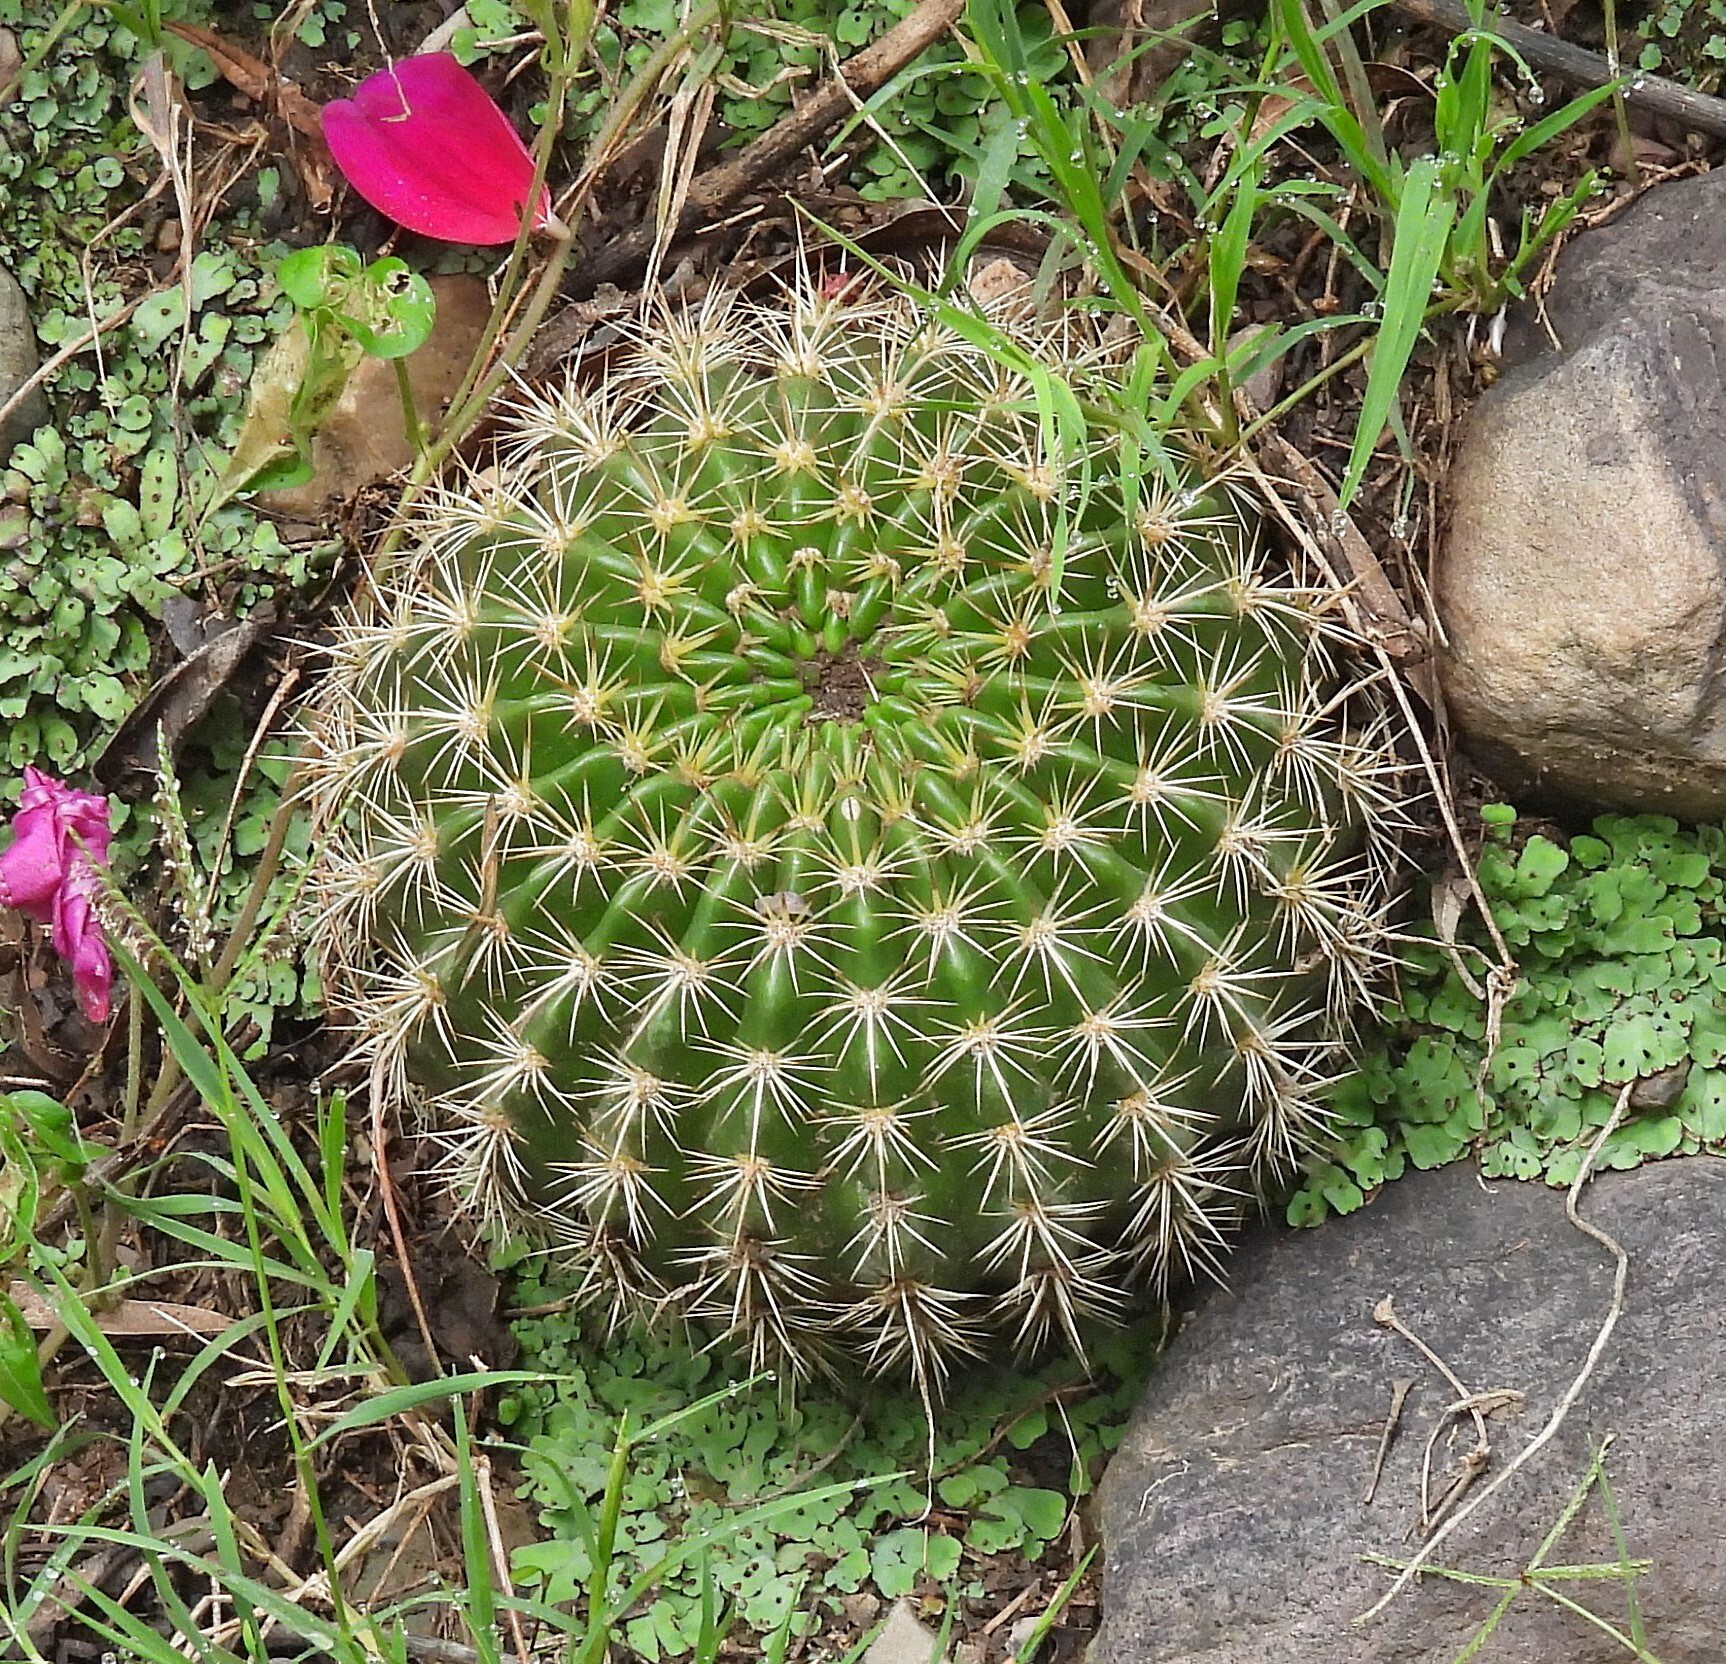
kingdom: Plantae
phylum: Tracheophyta
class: Magnoliopsida
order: Caryophyllales
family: Cactaceae
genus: Lobivia
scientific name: Lobivia mamillosa
